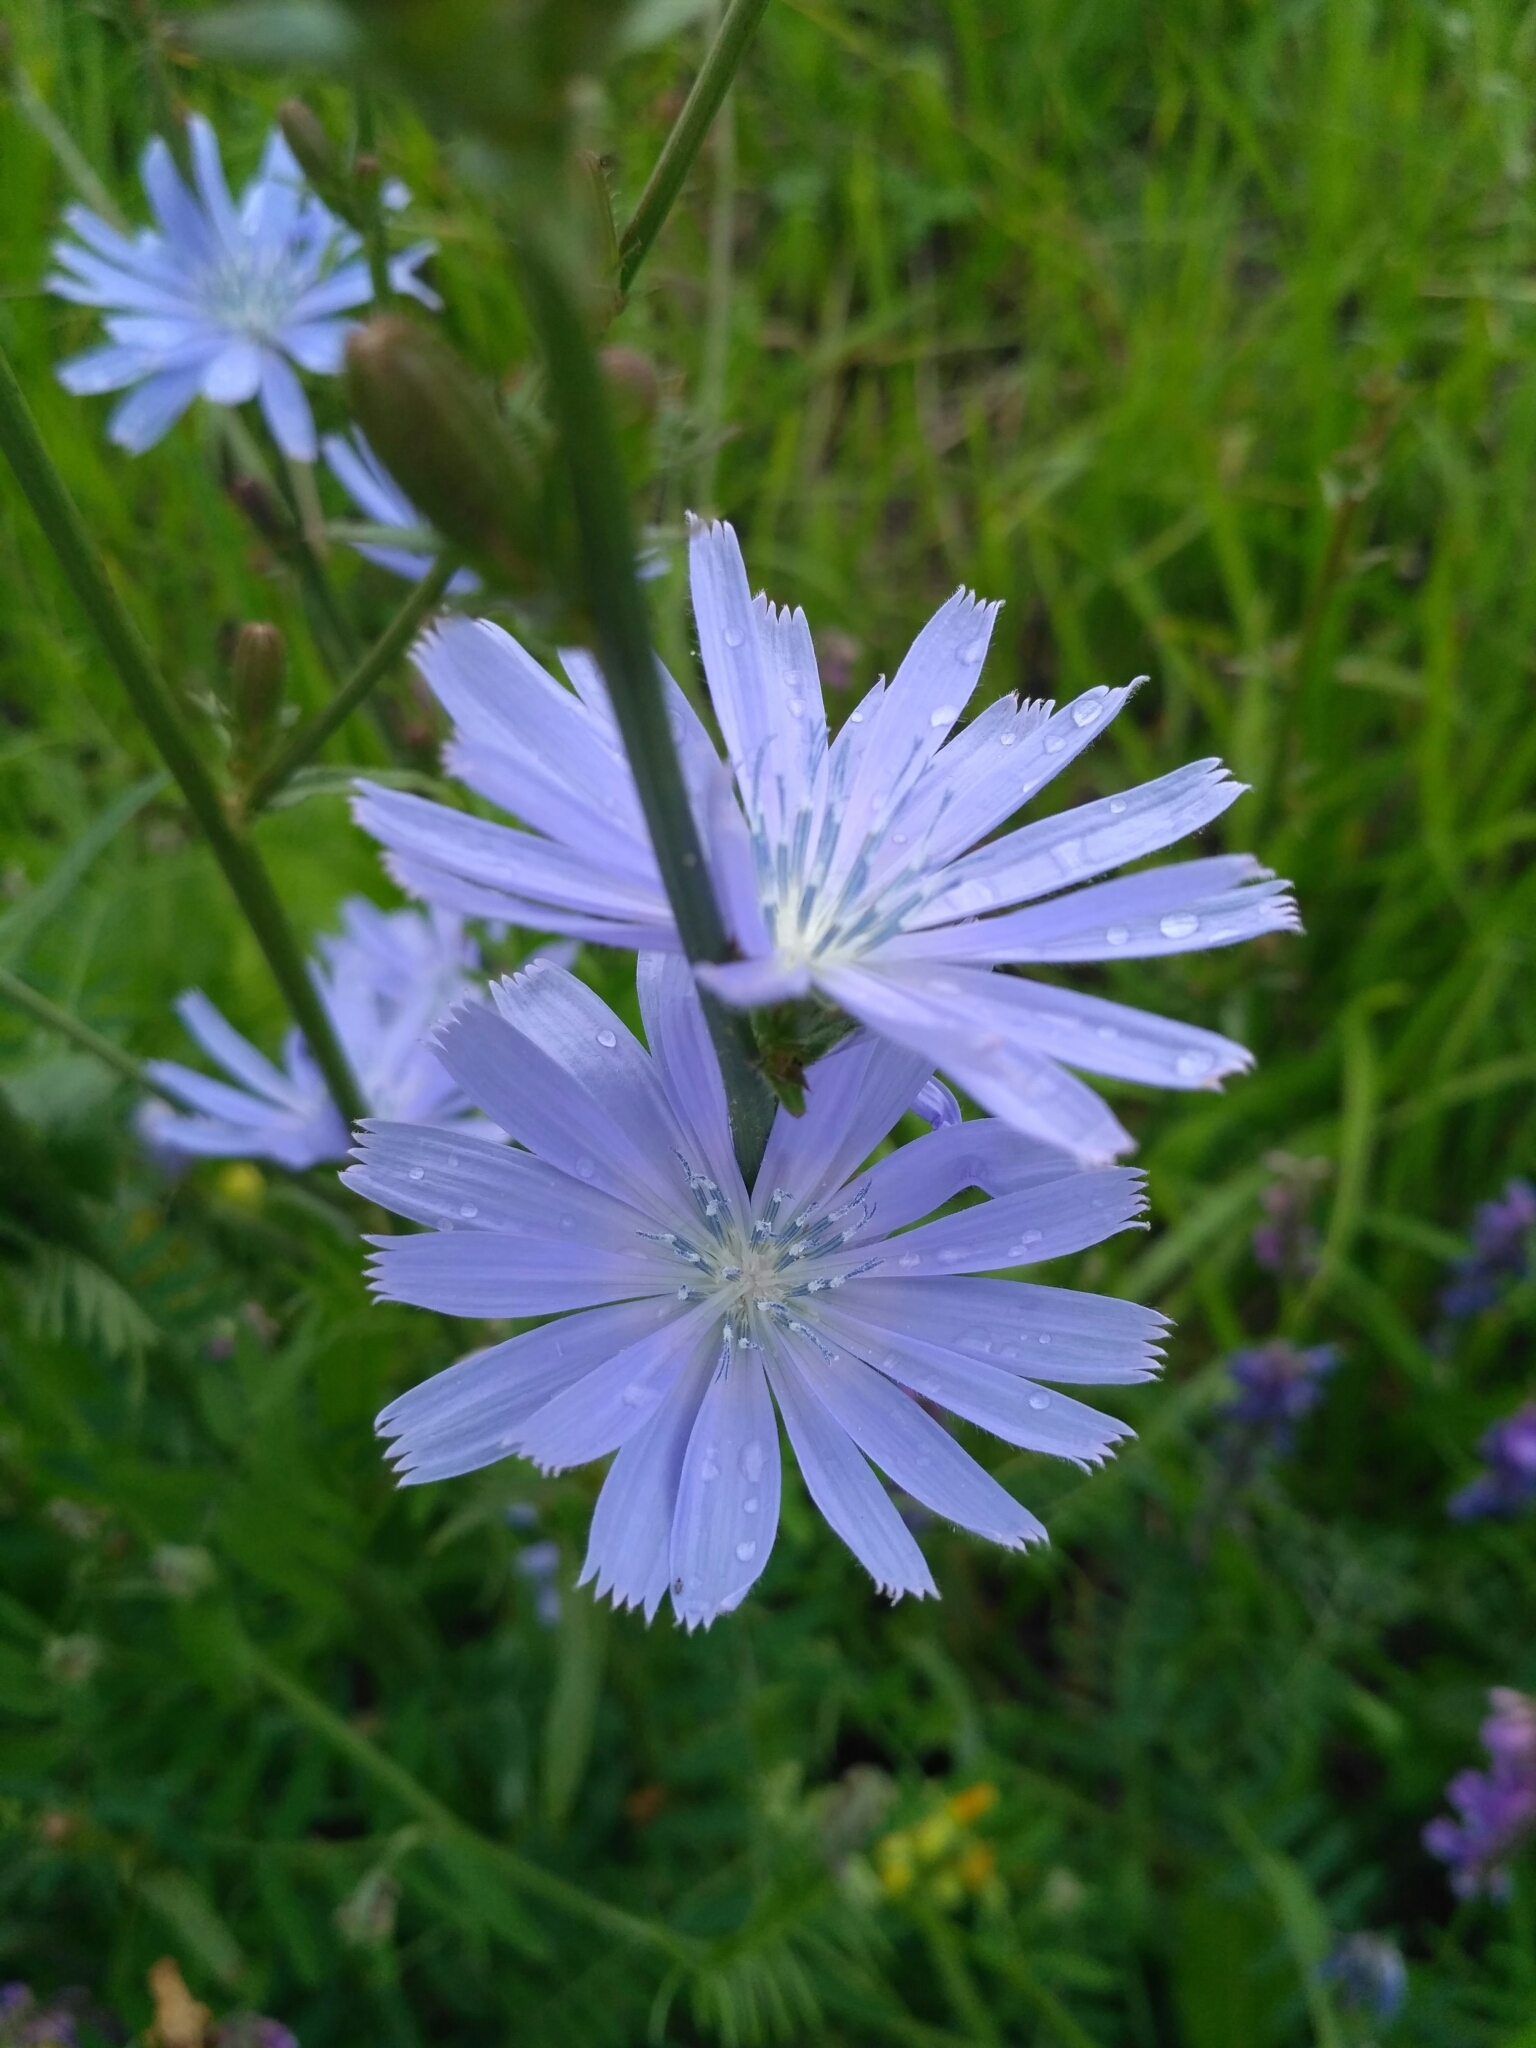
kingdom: Plantae
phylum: Tracheophyta
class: Magnoliopsida
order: Asterales
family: Asteraceae
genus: Cichorium
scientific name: Cichorium intybus
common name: Chicory
